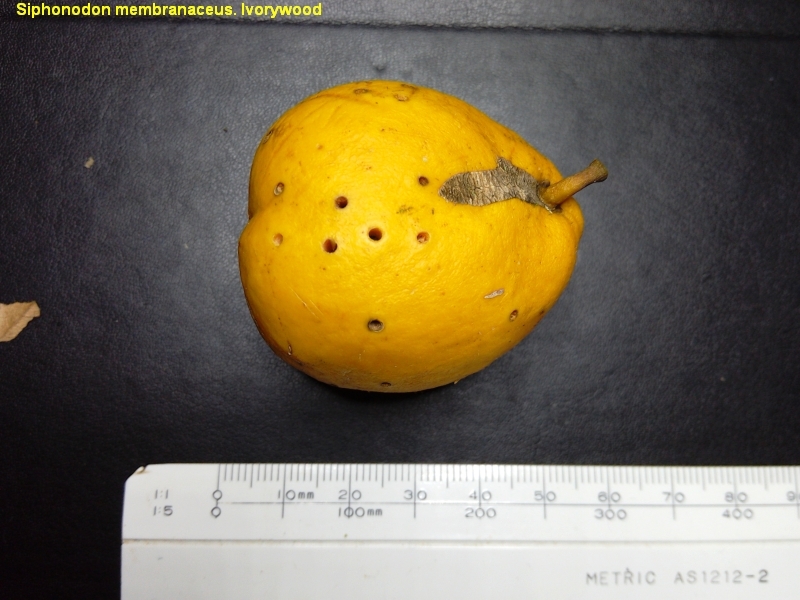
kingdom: Plantae
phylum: Tracheophyta
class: Magnoliopsida
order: Celastrales
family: Celastraceae
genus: Siphonodon
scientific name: Siphonodon membranaceus
